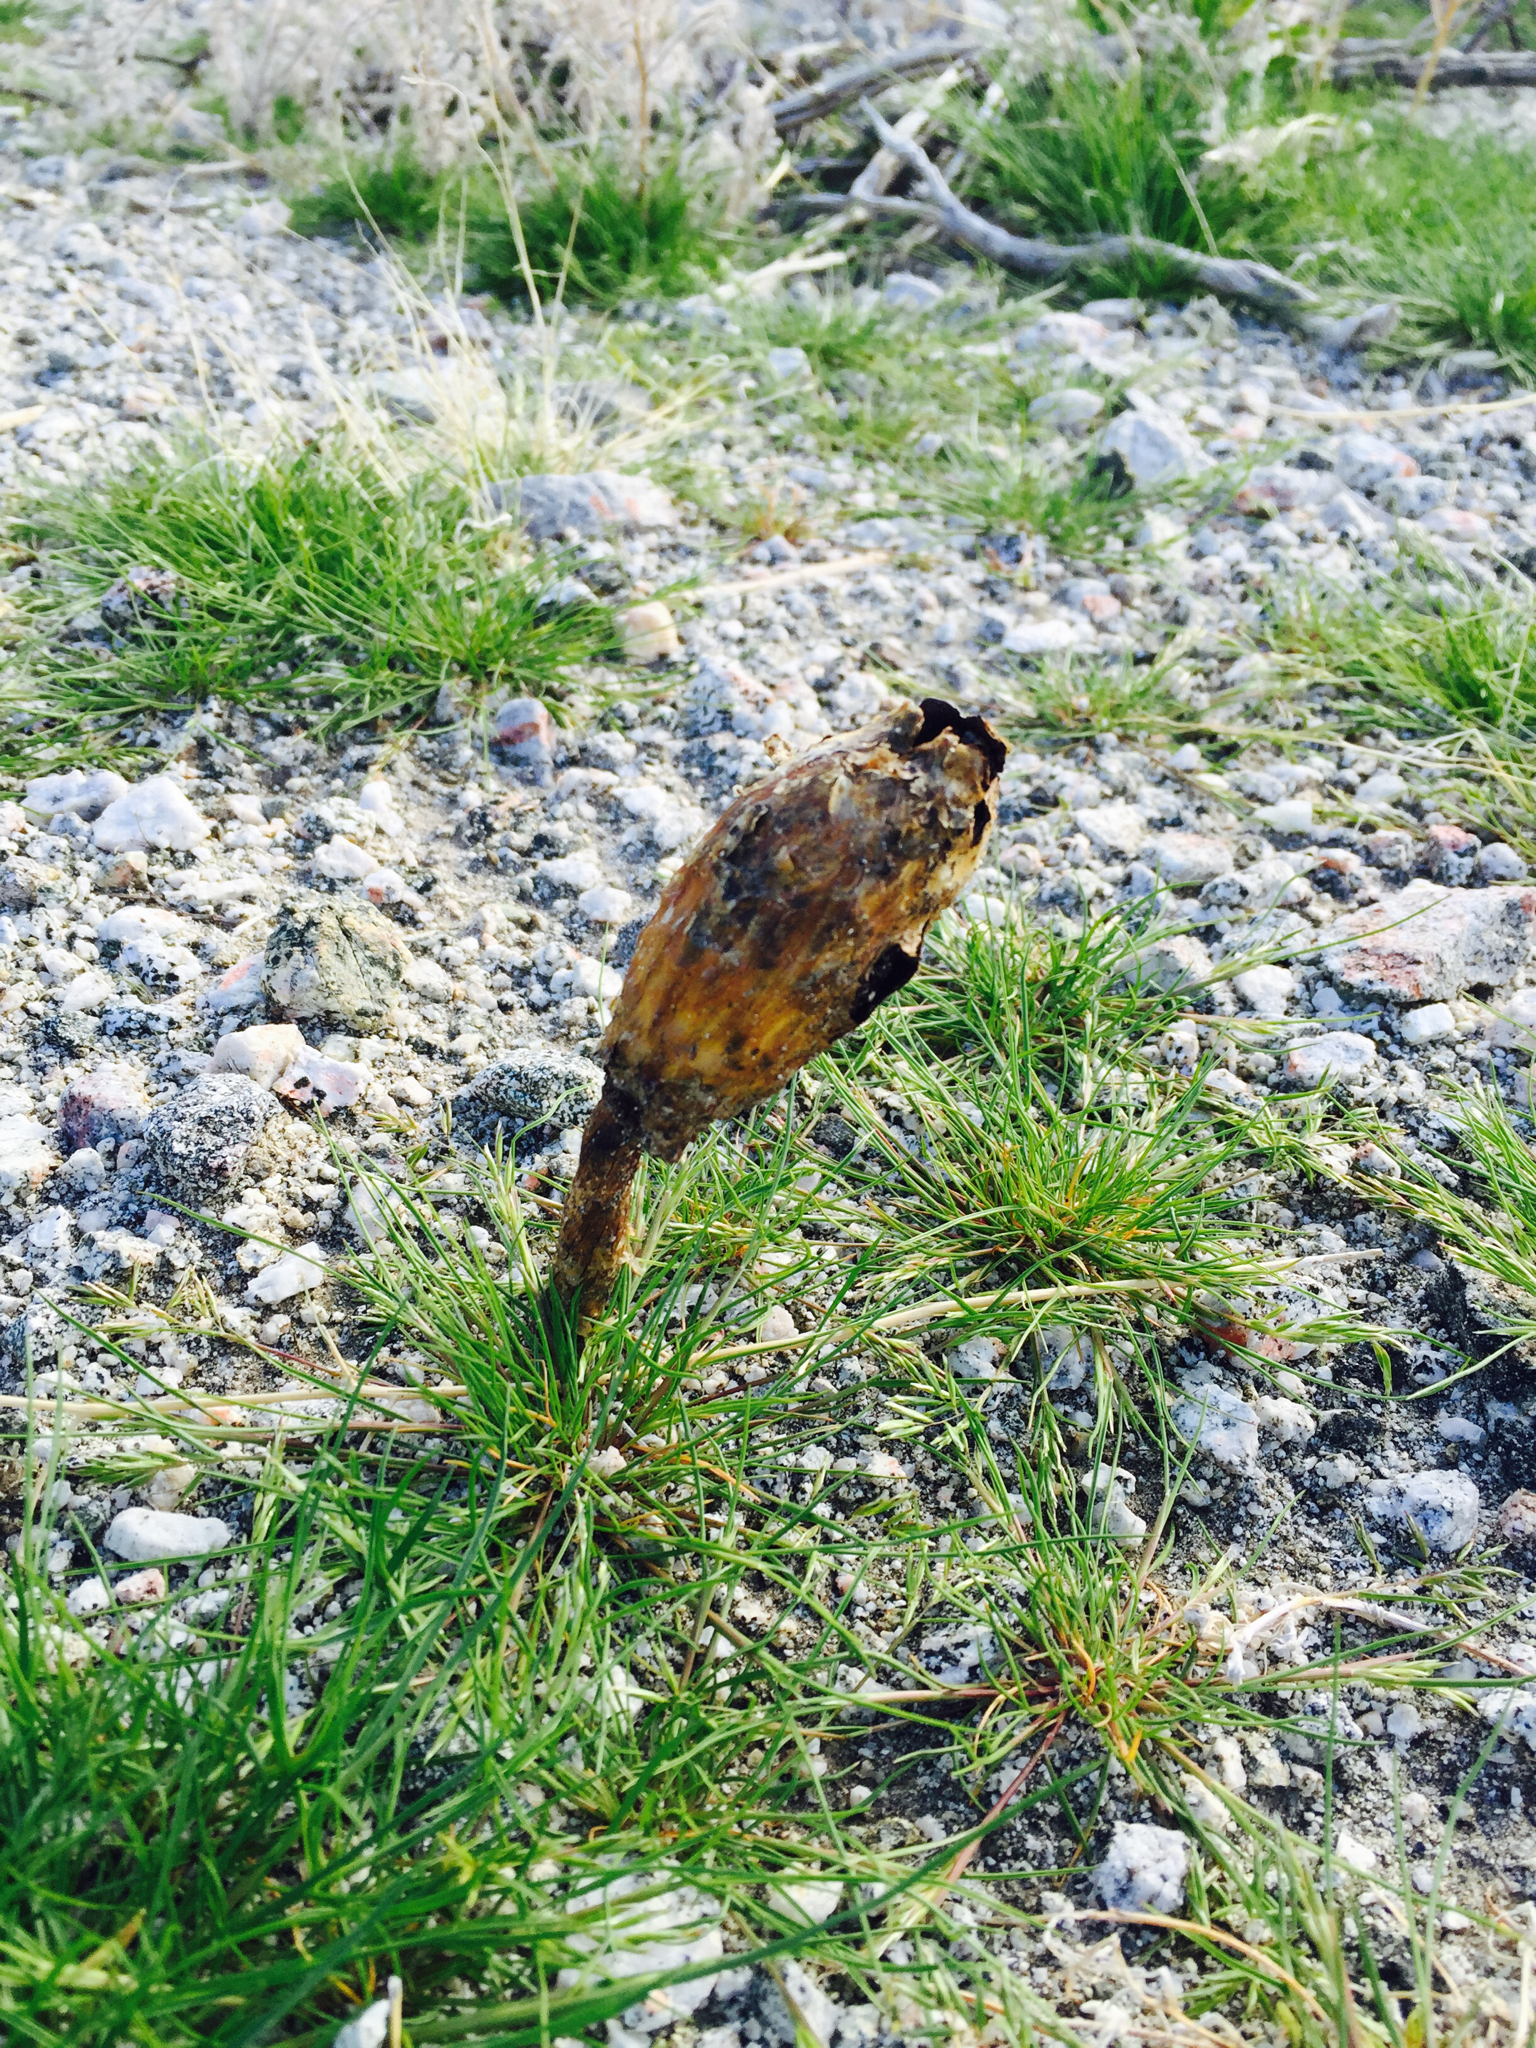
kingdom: Fungi
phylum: Basidiomycota
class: Agaricomycetes
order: Agaricales
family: Agaricaceae
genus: Podaxis
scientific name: Podaxis pistillaris
